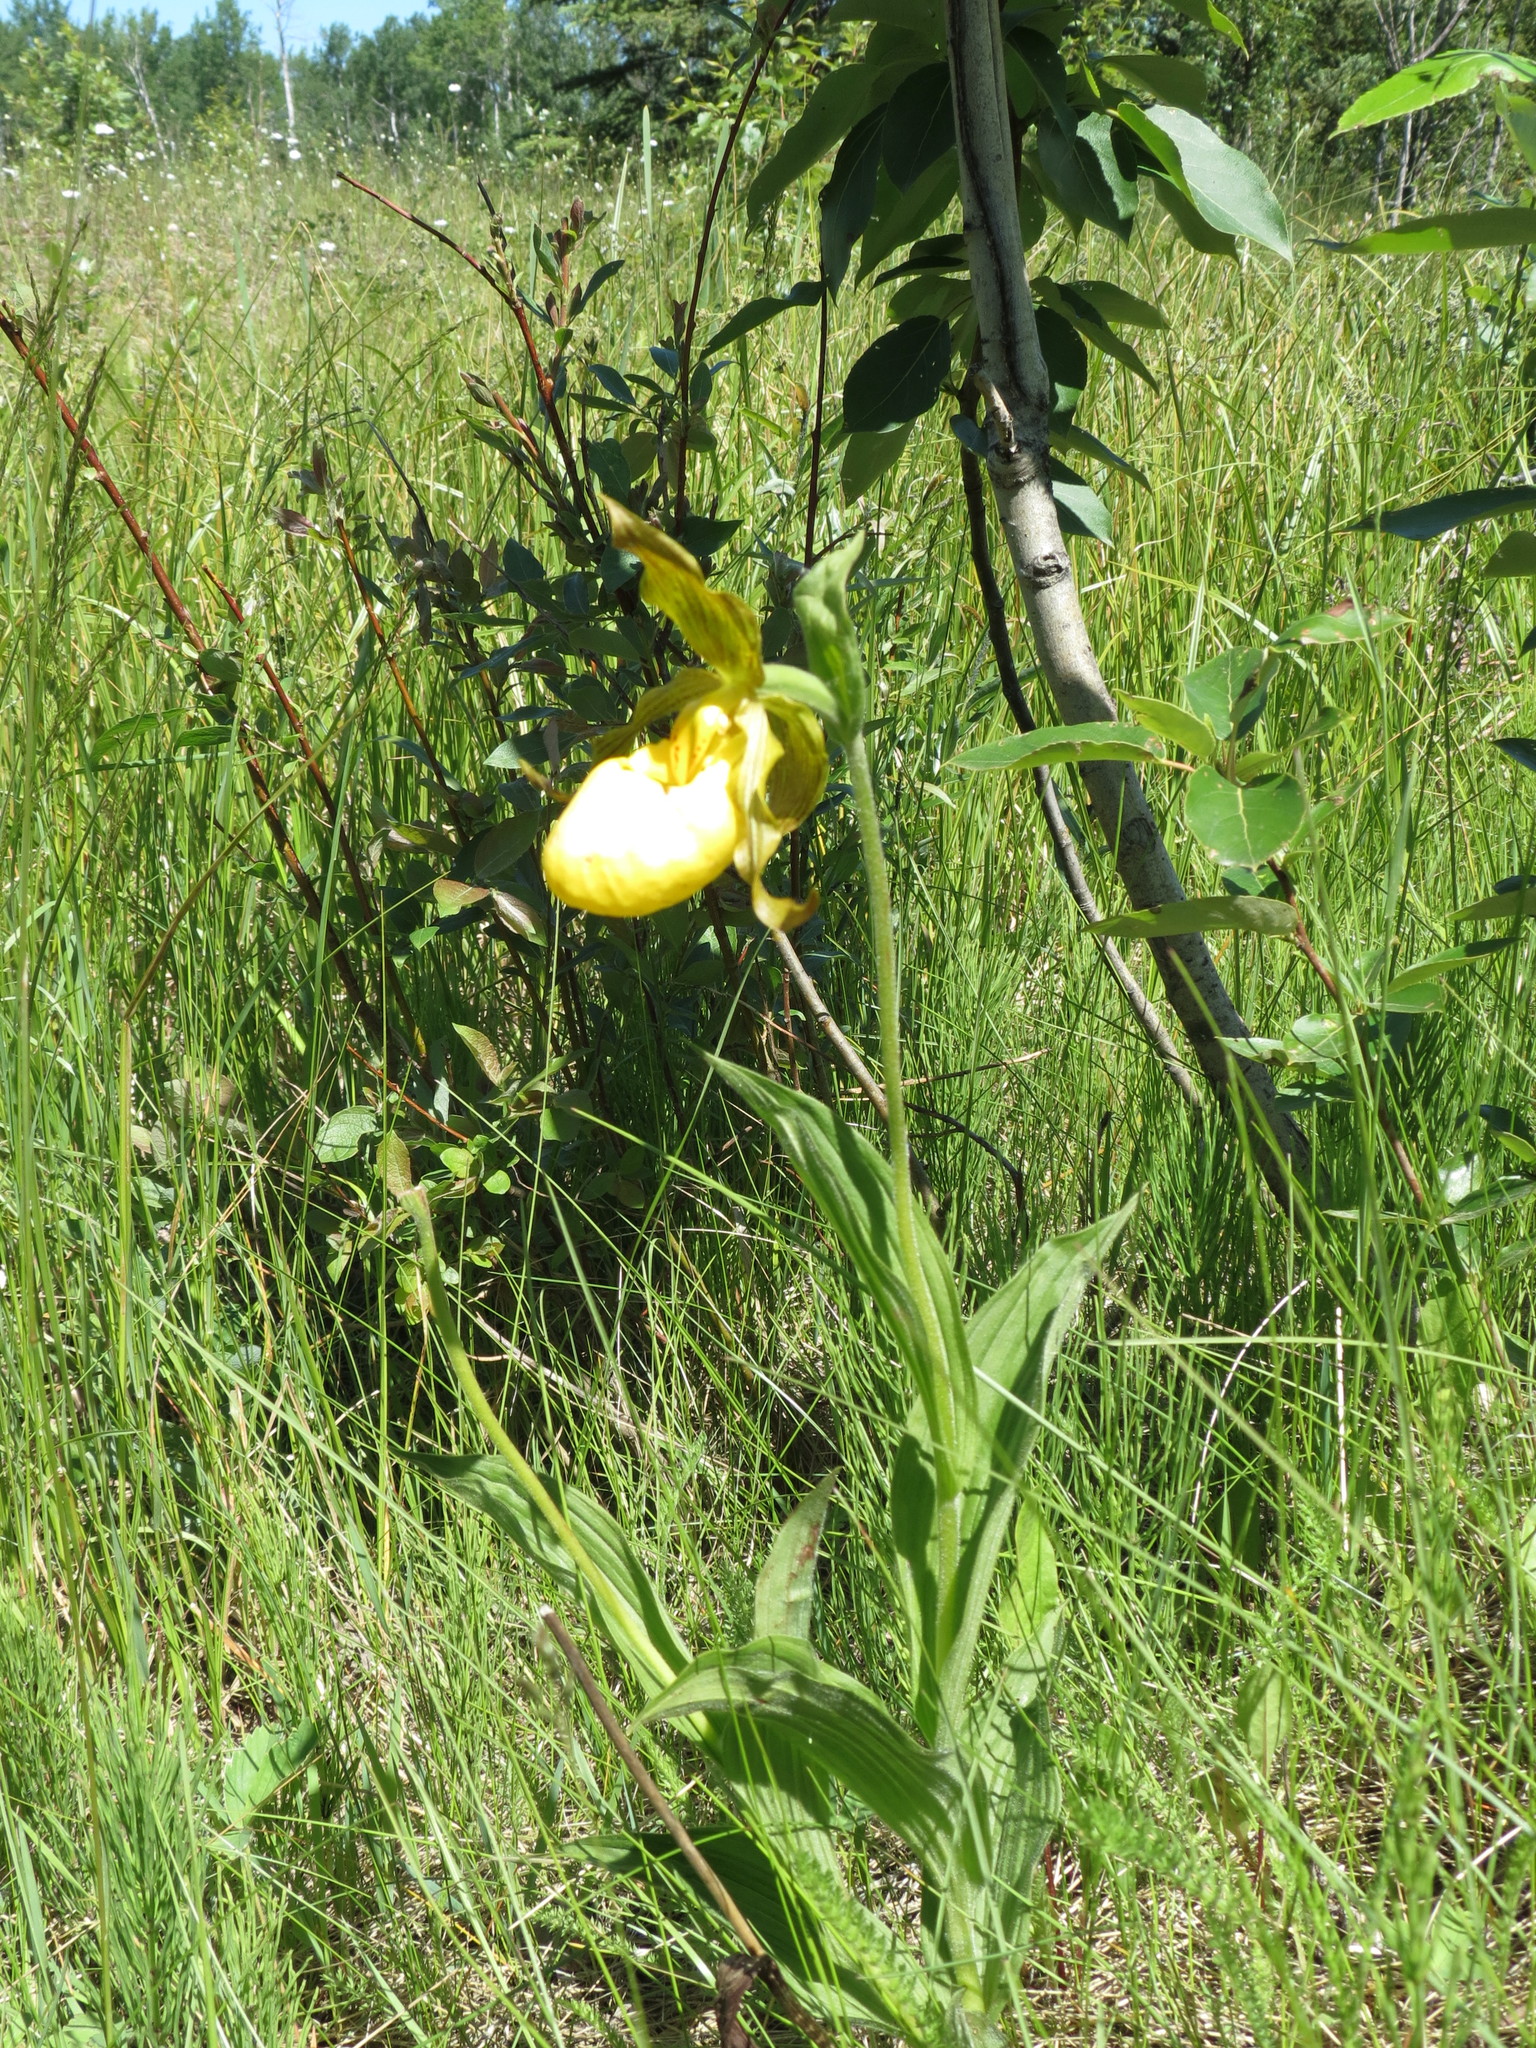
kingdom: Plantae
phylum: Tracheophyta
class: Liliopsida
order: Asparagales
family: Orchidaceae
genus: Cypripedium
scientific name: Cypripedium parviflorum
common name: American yellow lady's-slipper
